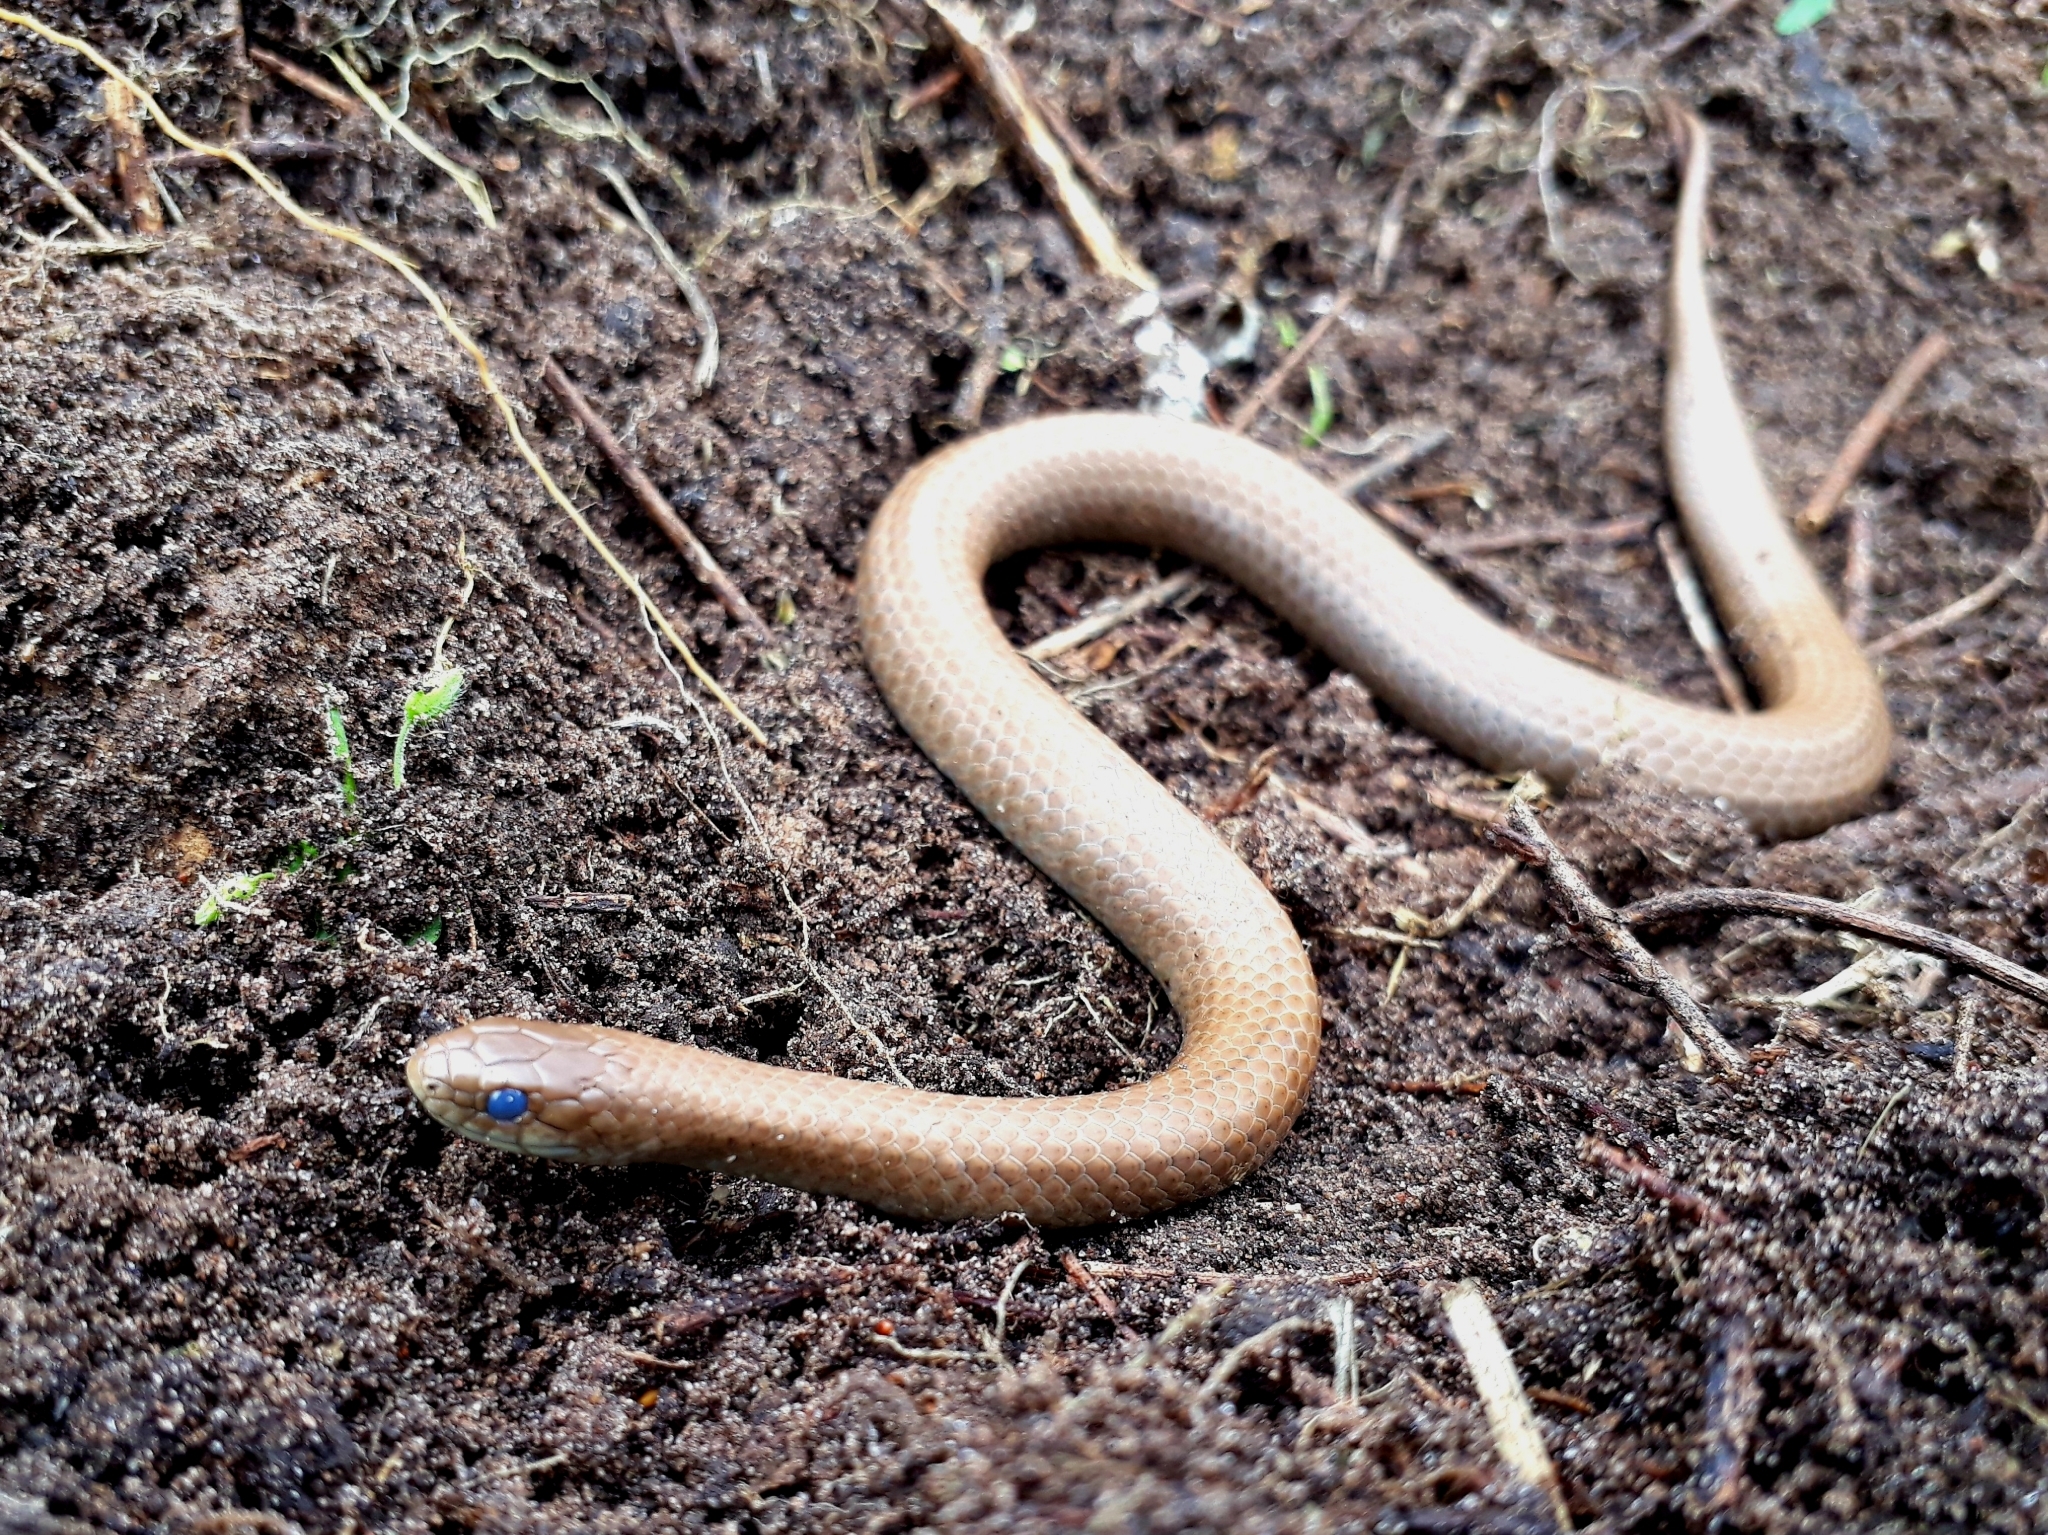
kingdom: Animalia
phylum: Chordata
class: Squamata
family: Pseudoxyrhophiidae
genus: Duberria
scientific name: Duberria lutrix
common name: Common slug eater
